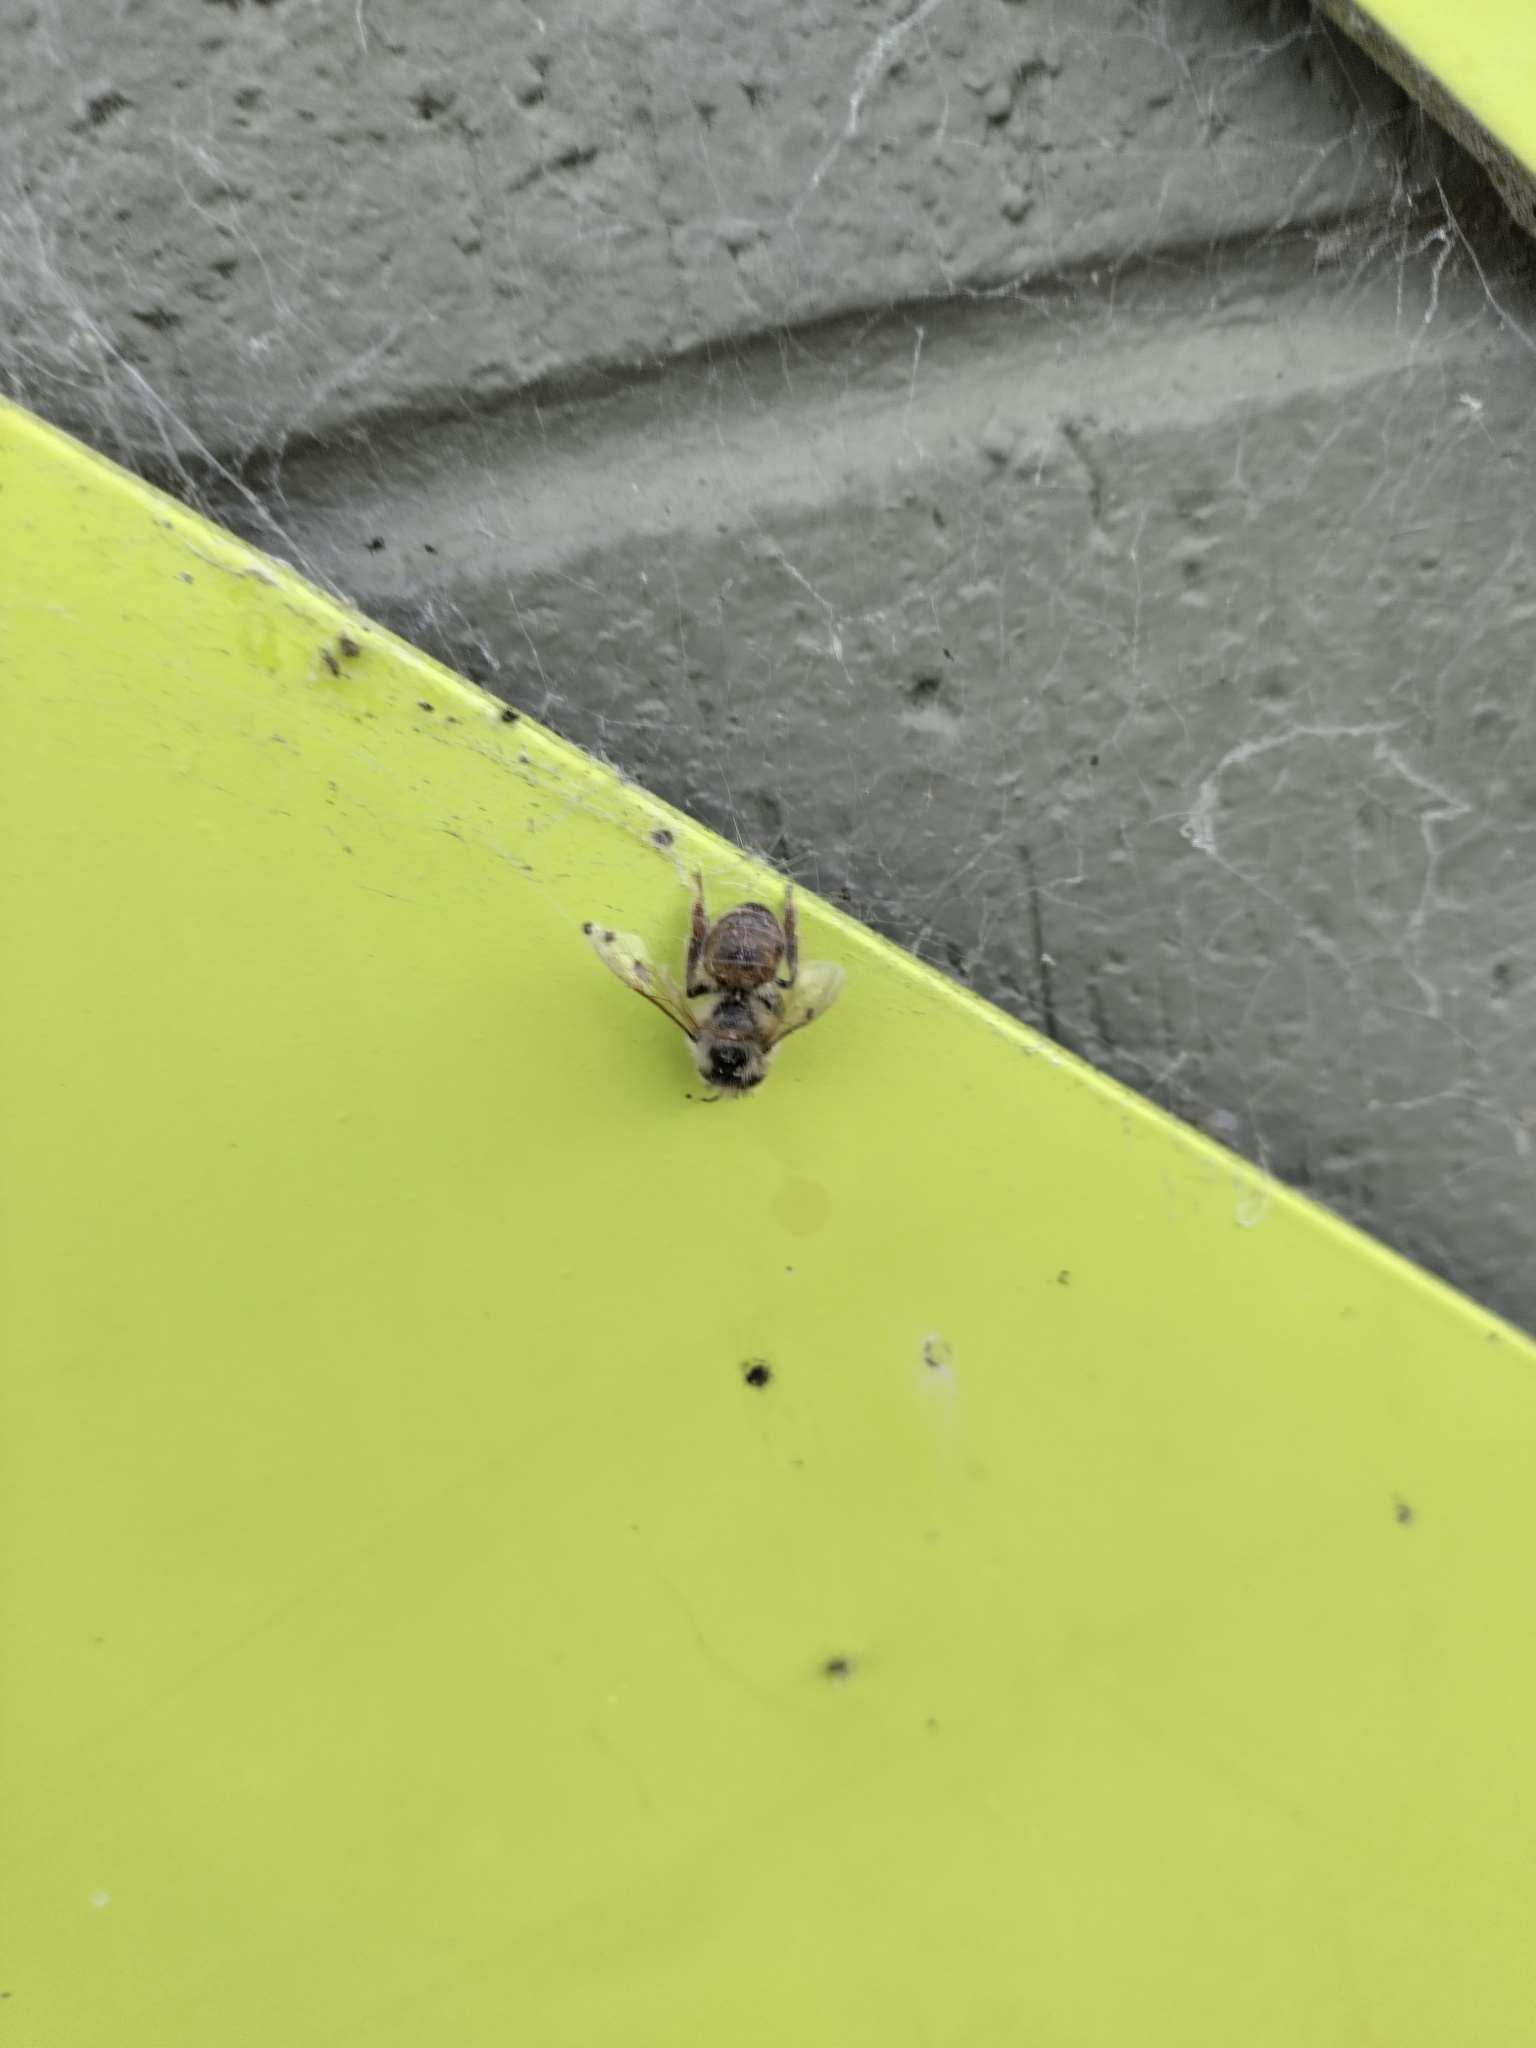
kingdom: Animalia
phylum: Arthropoda
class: Insecta
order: Hymenoptera
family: Apidae
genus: Apis
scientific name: Apis mellifera
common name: Honey bee
